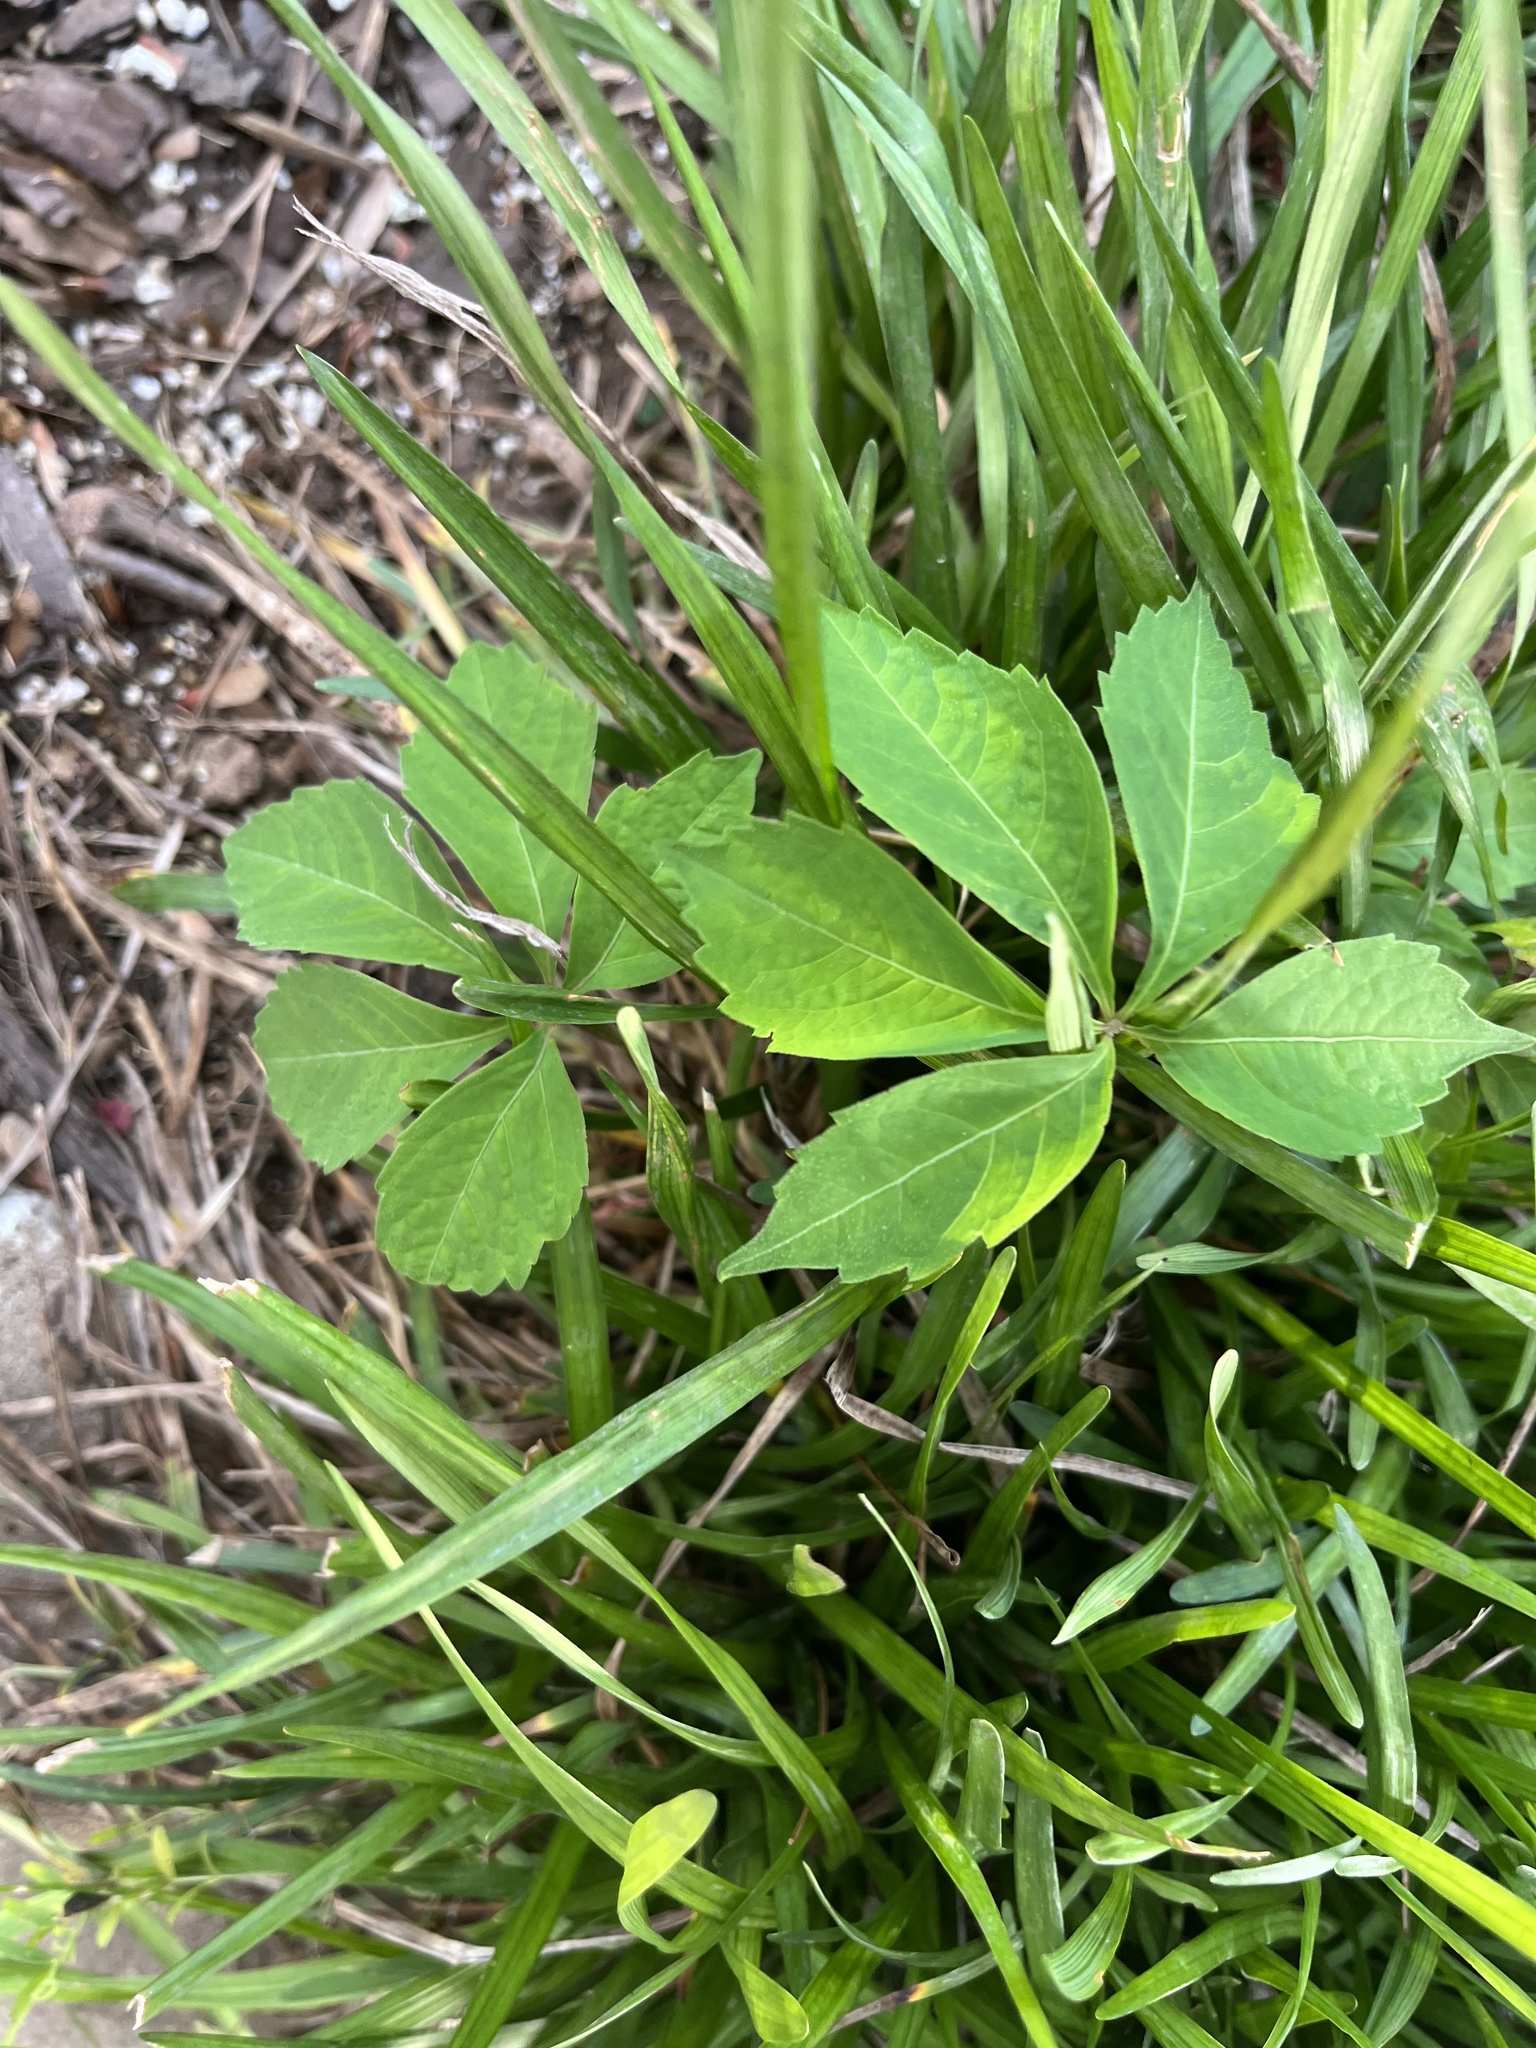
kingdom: Plantae
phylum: Tracheophyta
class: Magnoliopsida
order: Vitales
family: Vitaceae
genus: Parthenocissus
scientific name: Parthenocissus quinquefolia
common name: Virginia-creeper
